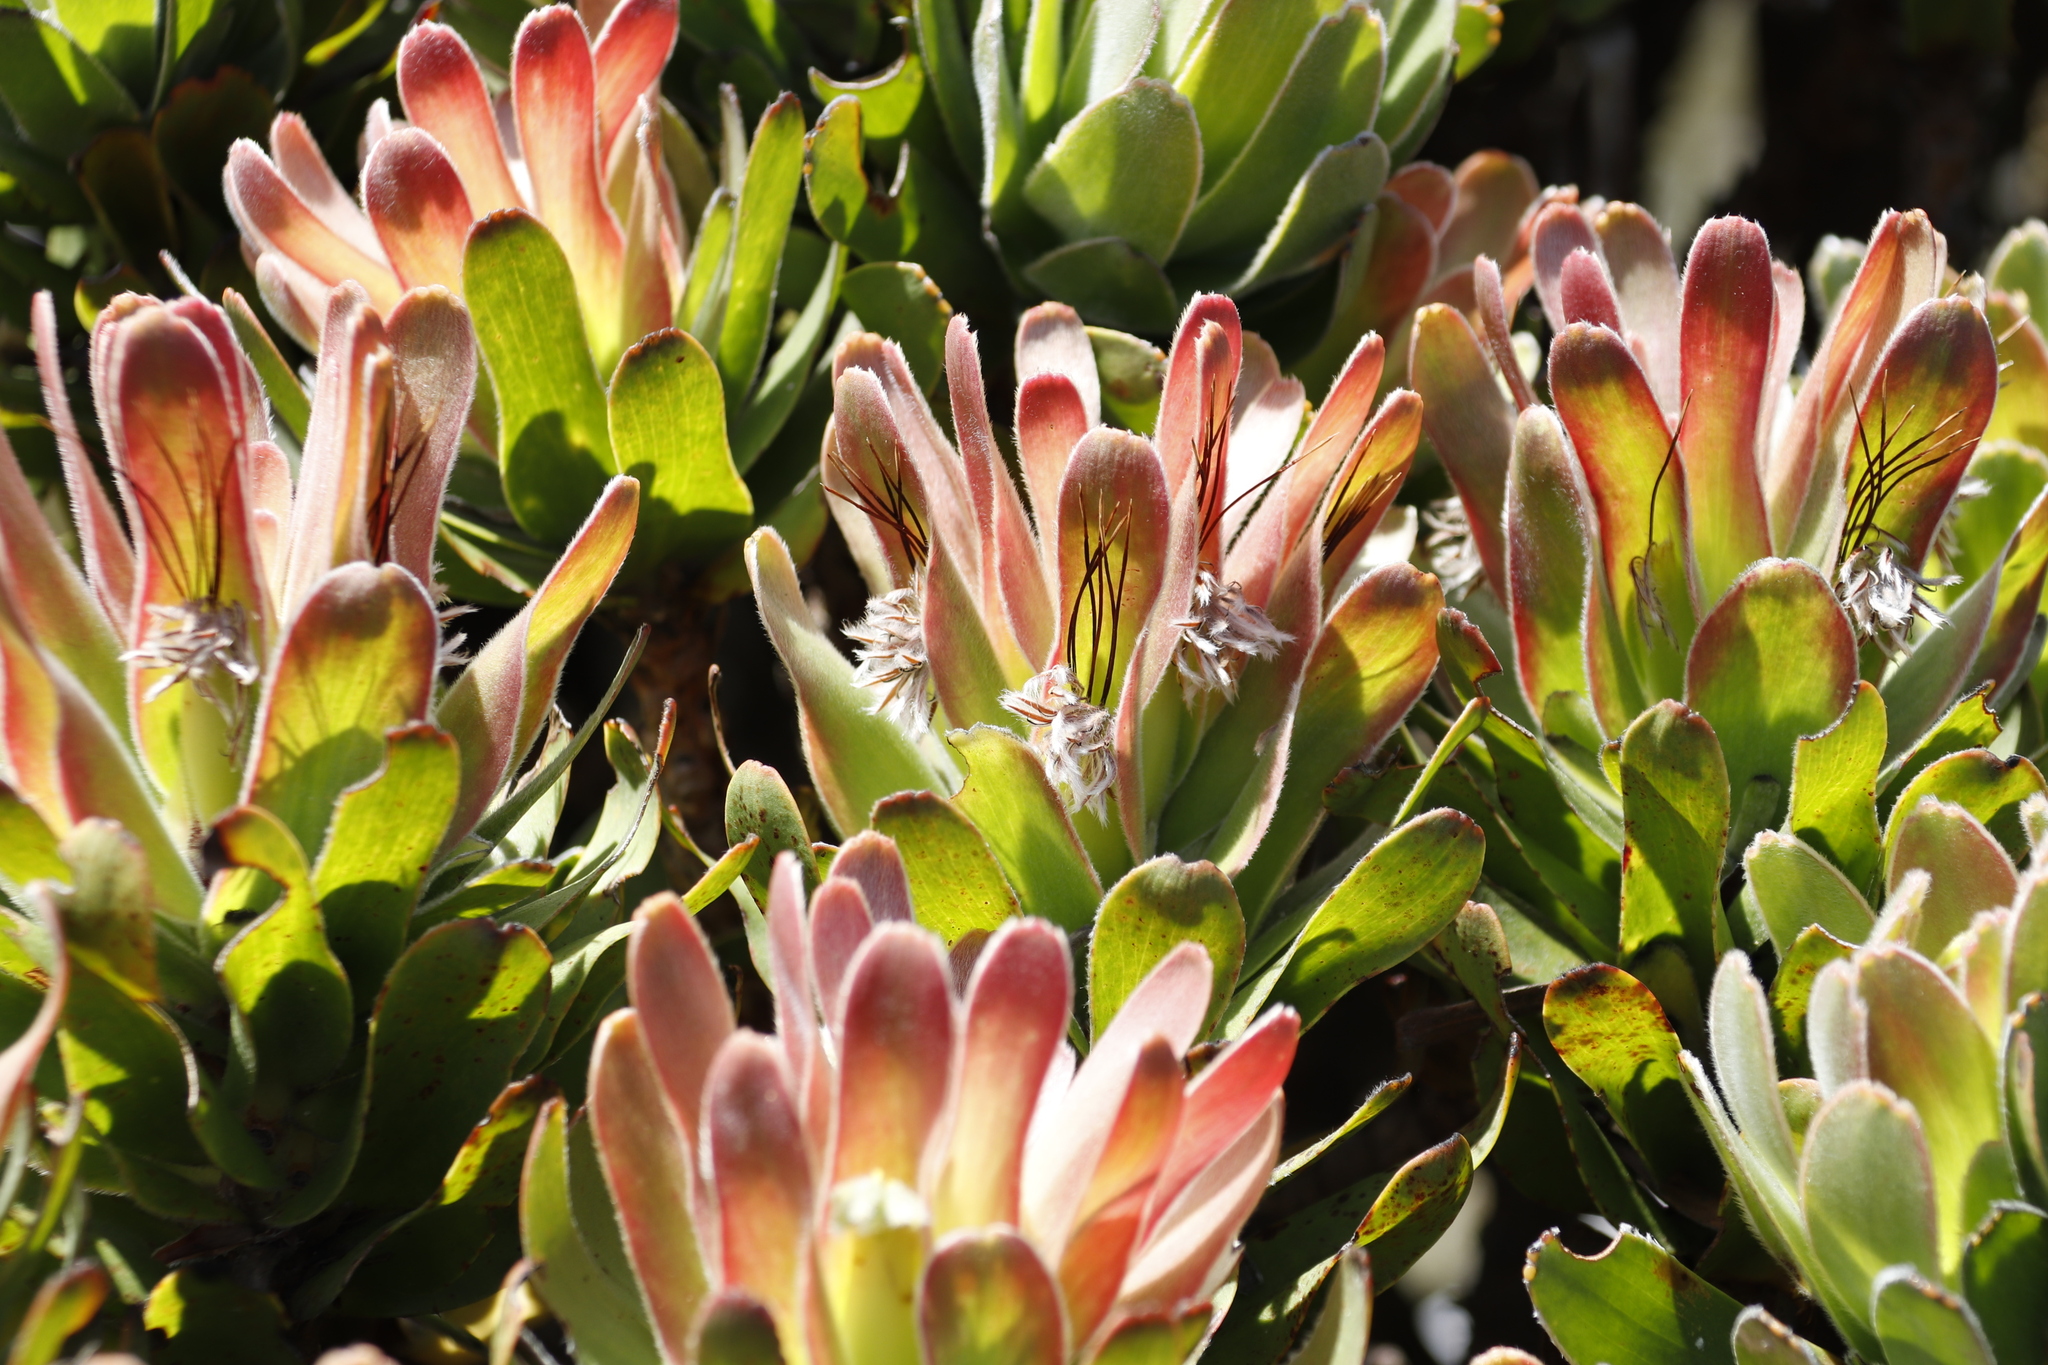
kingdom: Plantae
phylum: Tracheophyta
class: Magnoliopsida
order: Proteales
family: Proteaceae
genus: Mimetes
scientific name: Mimetes fimbriifolius
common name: Fringed bottlebrush
